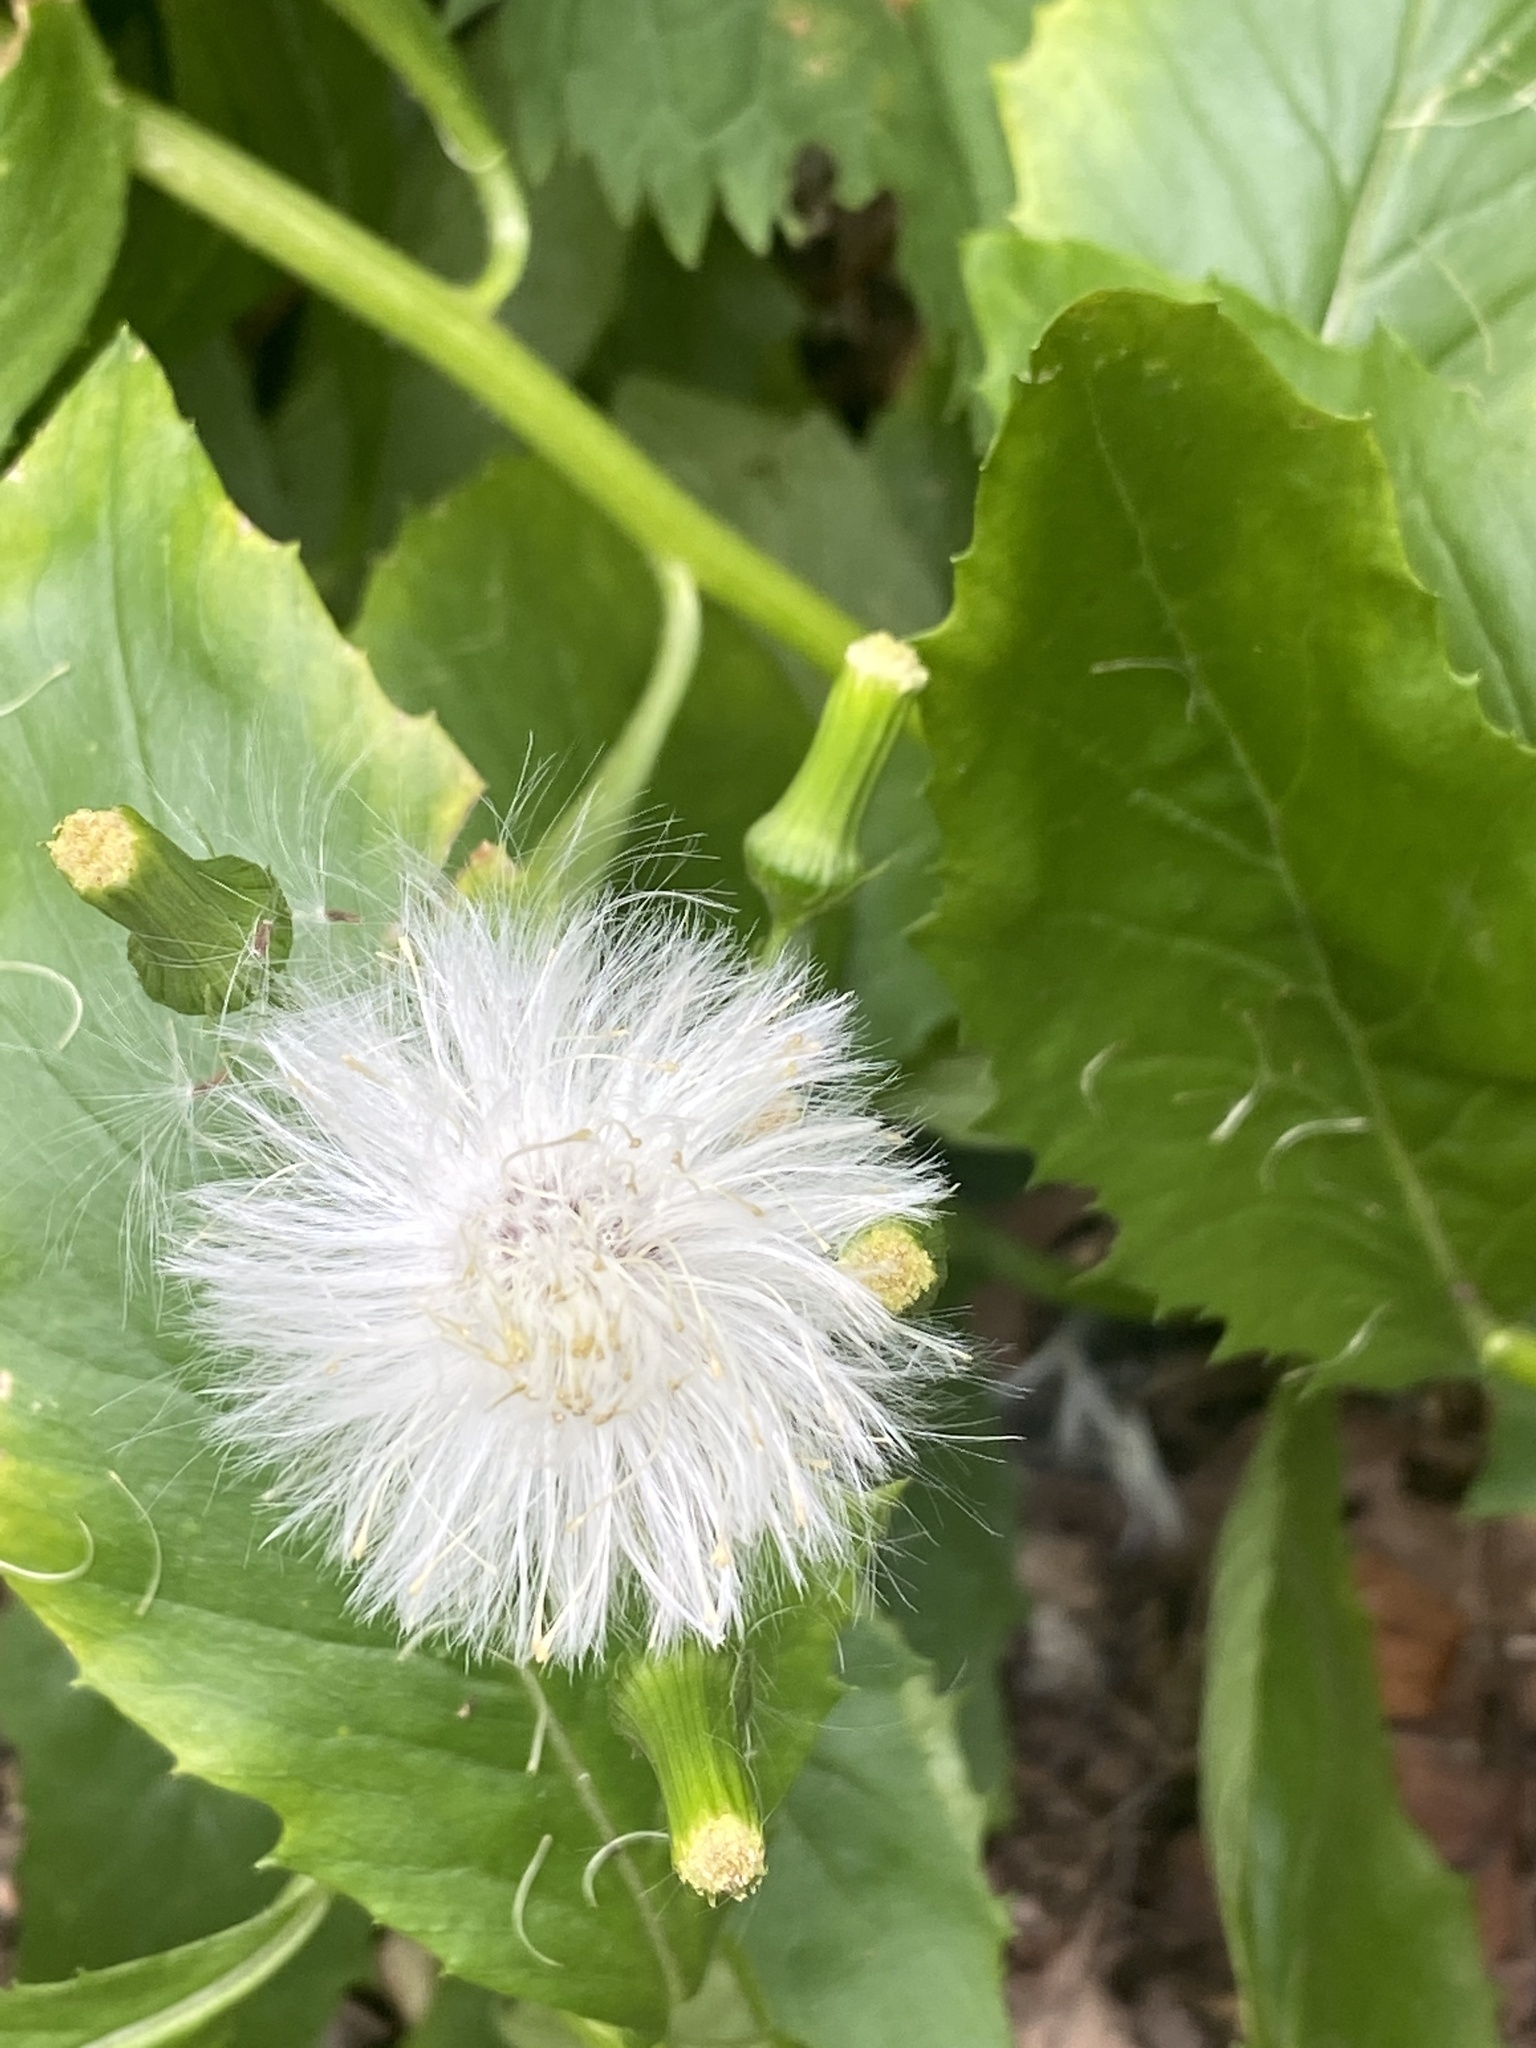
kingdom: Plantae
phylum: Tracheophyta
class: Magnoliopsida
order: Asterales
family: Asteraceae
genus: Erechtites
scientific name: Erechtites hieraciifolius
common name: American burnweed
